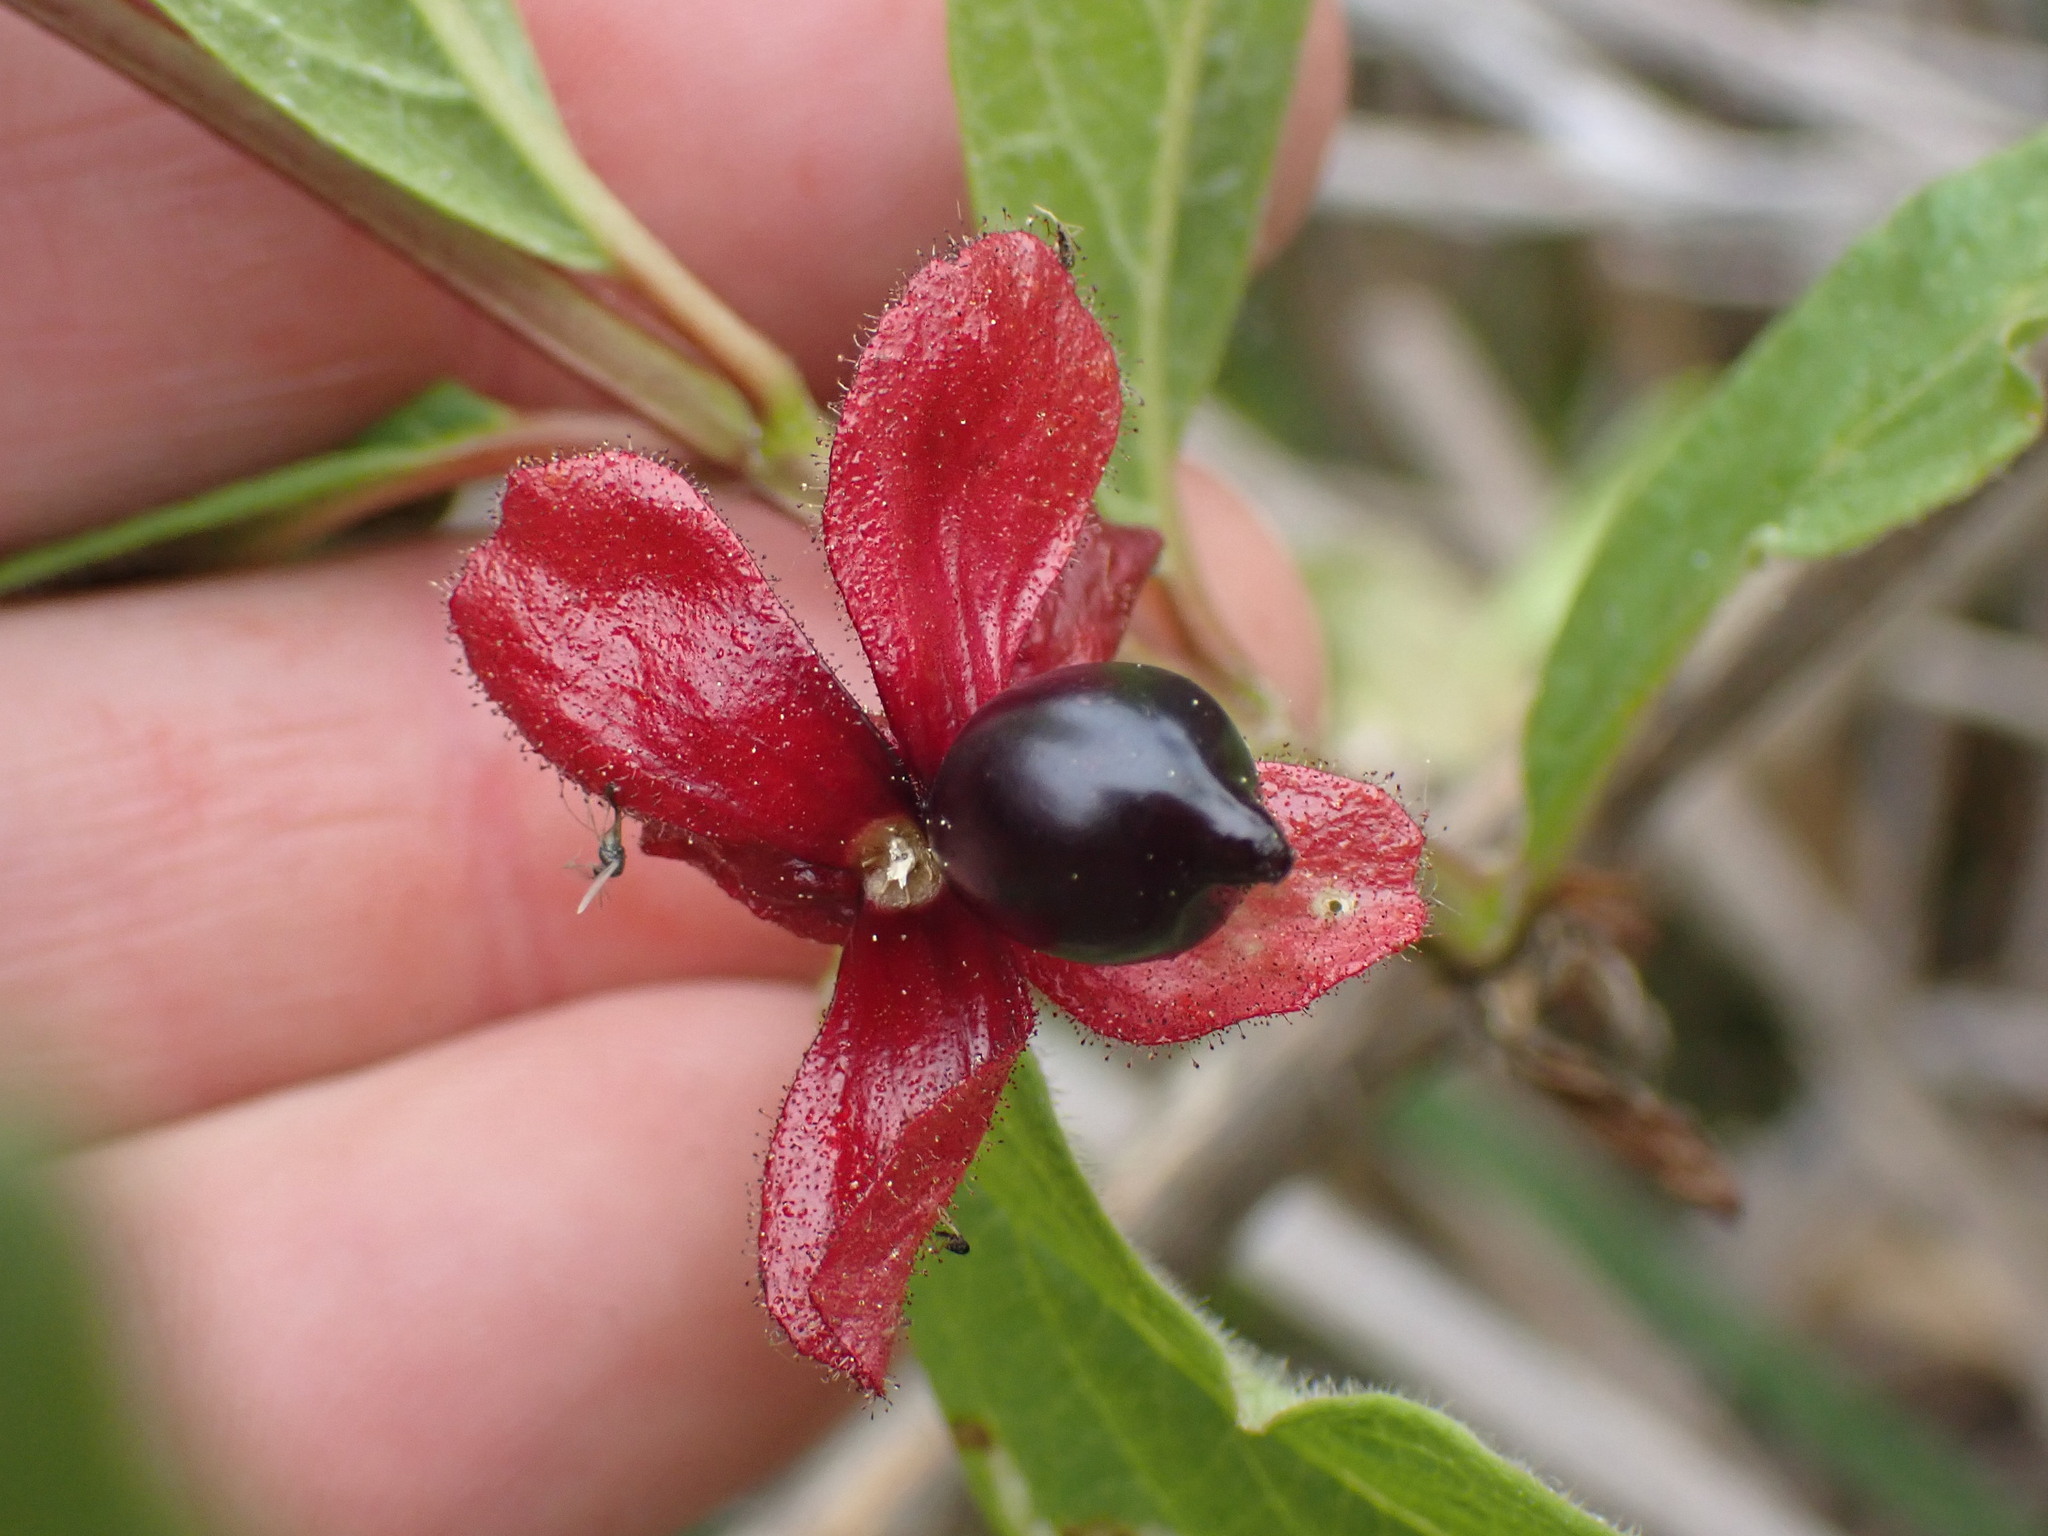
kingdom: Plantae
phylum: Tracheophyta
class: Magnoliopsida
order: Dipsacales
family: Caprifoliaceae
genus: Lonicera
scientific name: Lonicera involucrata
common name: Californian honeysuckle
